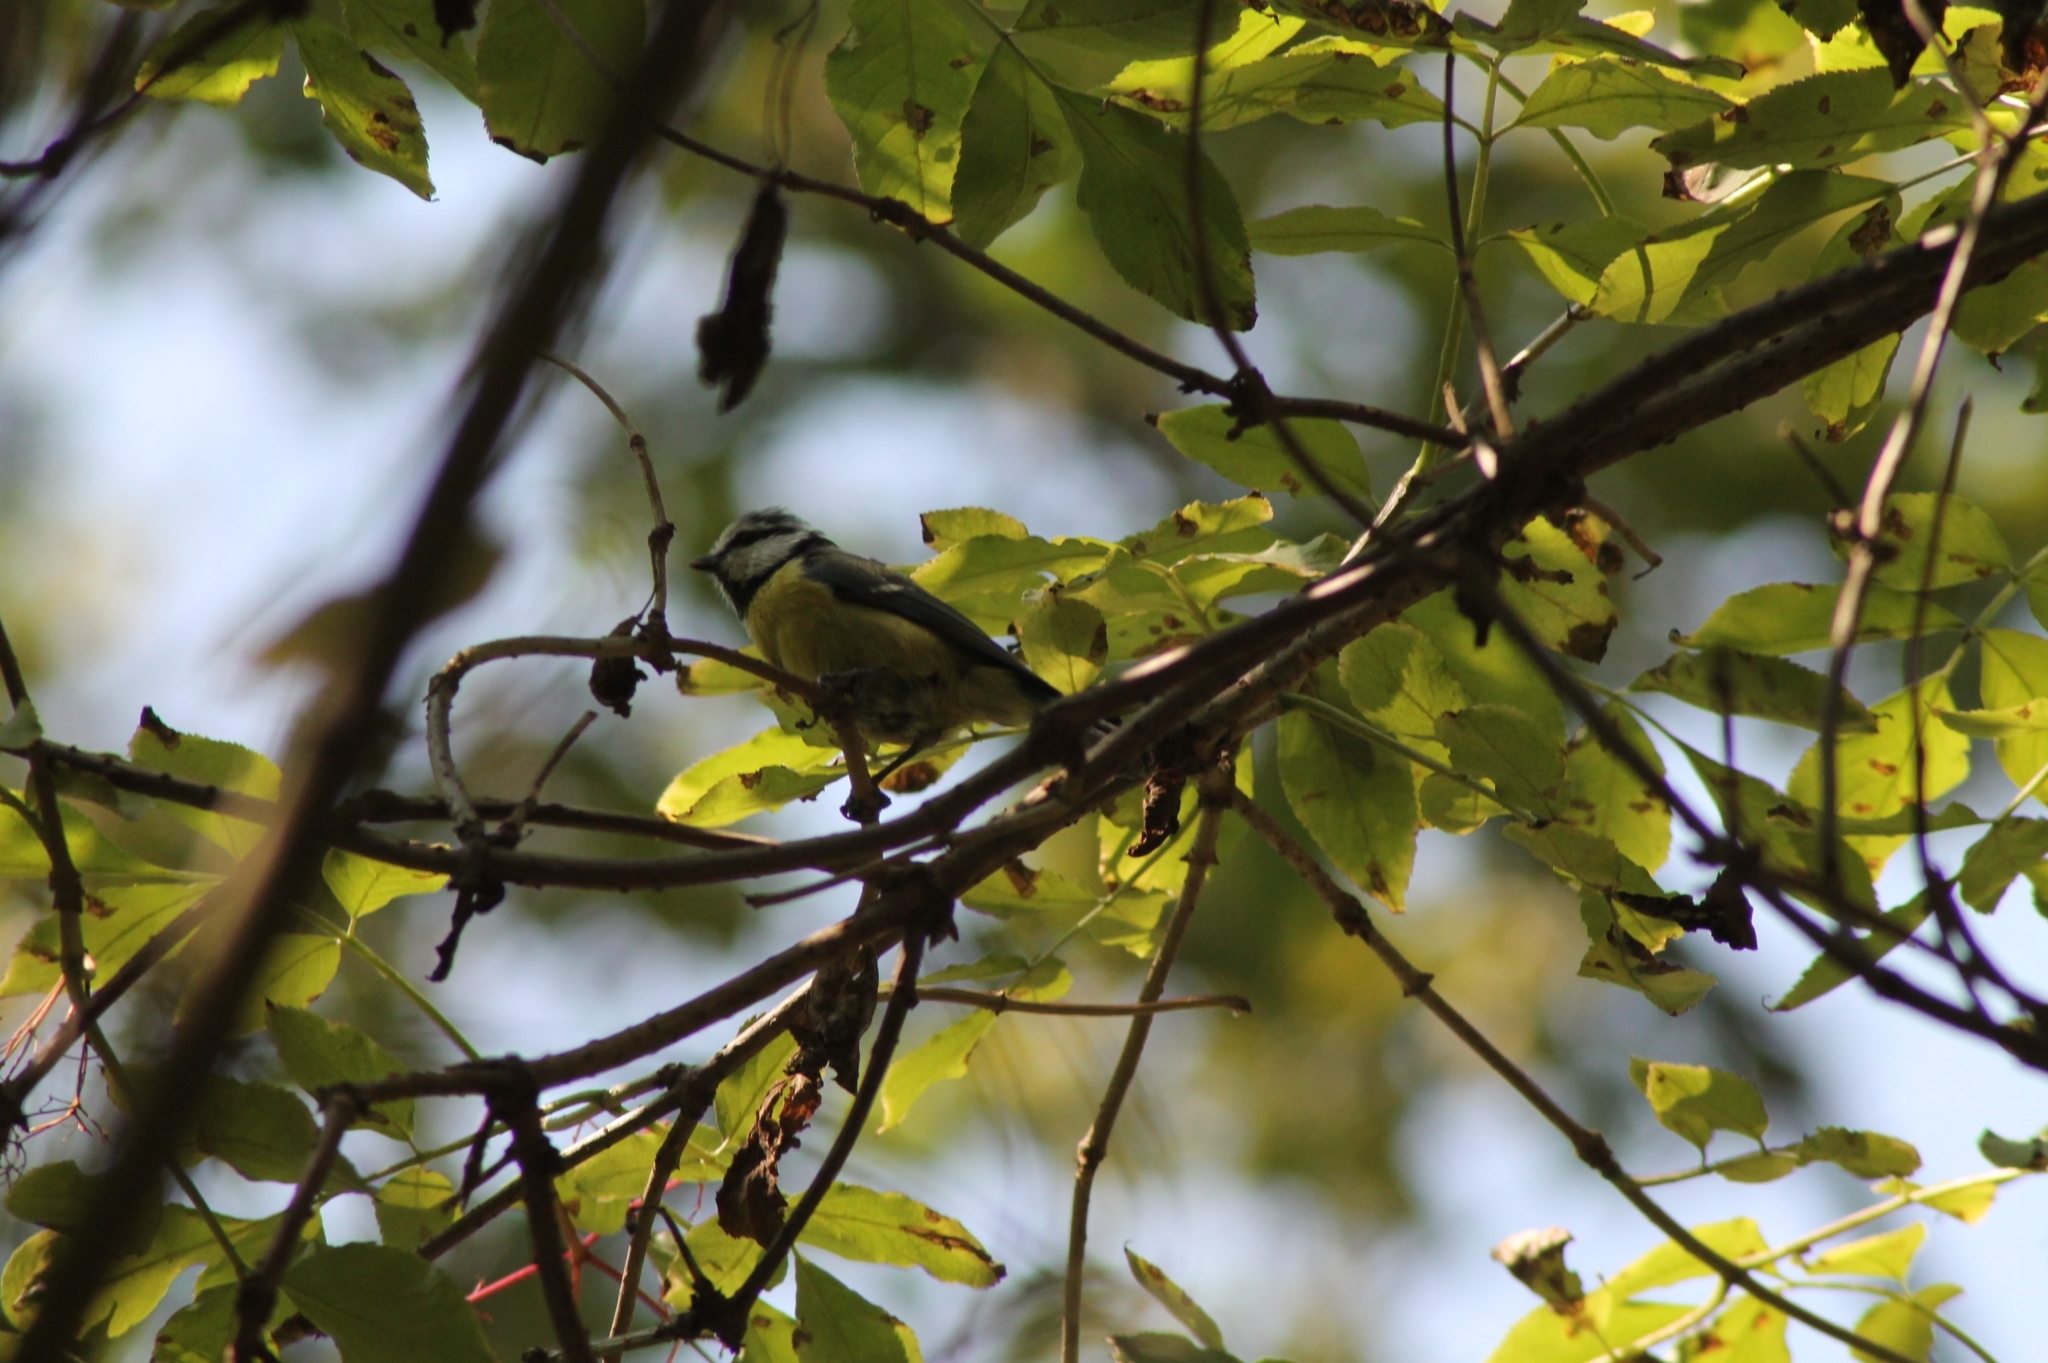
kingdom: Animalia
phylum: Chordata
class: Aves
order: Passeriformes
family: Paridae
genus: Cyanistes
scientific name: Cyanistes caeruleus
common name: Eurasian blue tit
